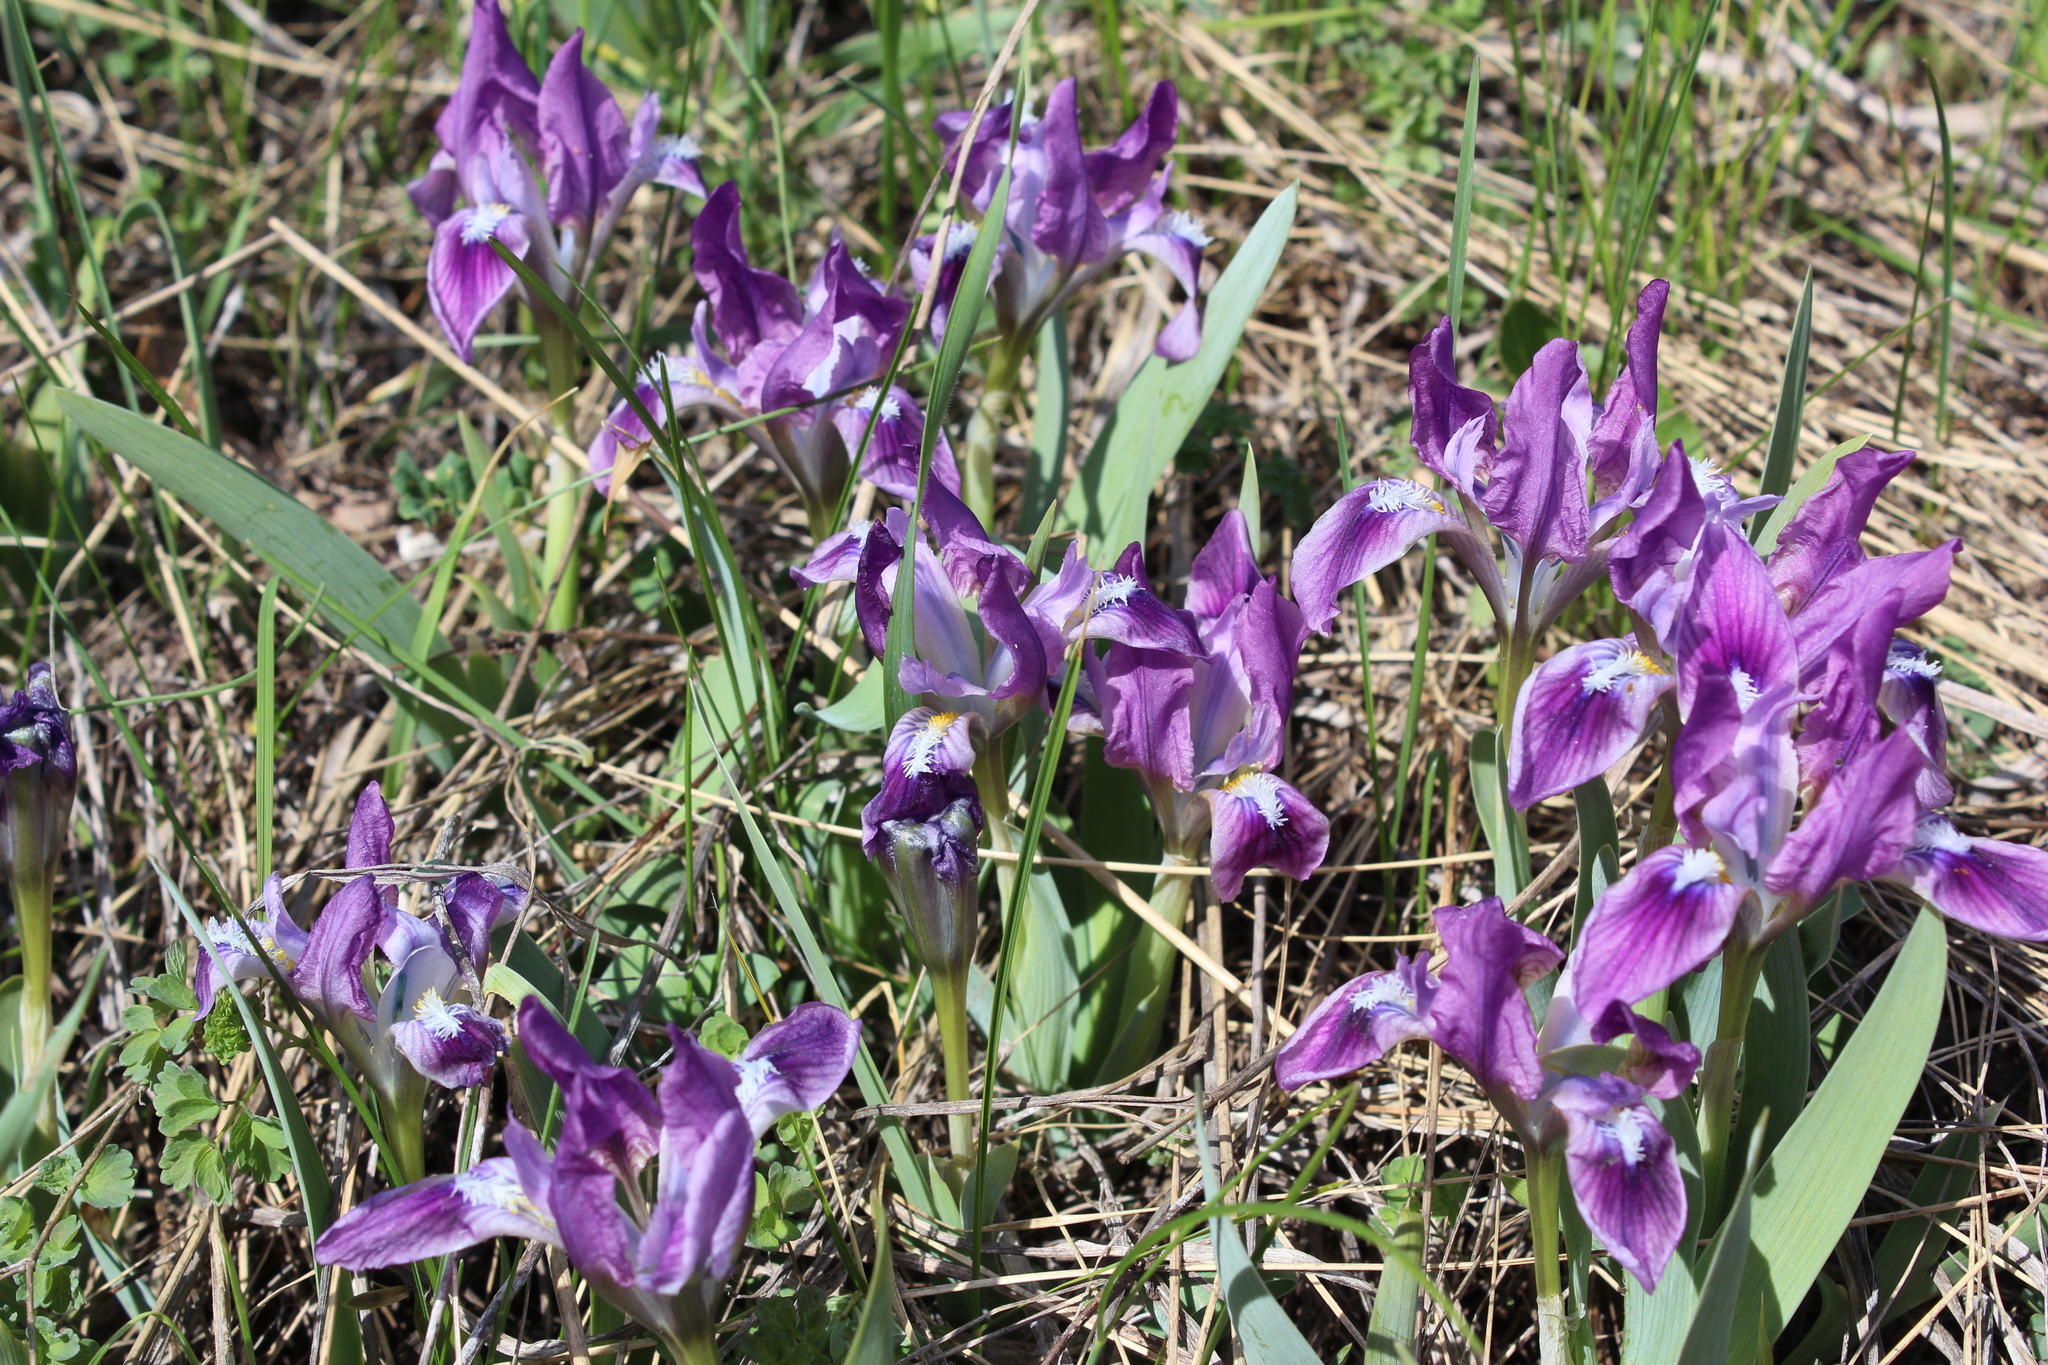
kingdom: Plantae
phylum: Tracheophyta
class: Liliopsida
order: Asparagales
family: Iridaceae
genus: Iris
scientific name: Iris pumila
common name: Dwarf iris
